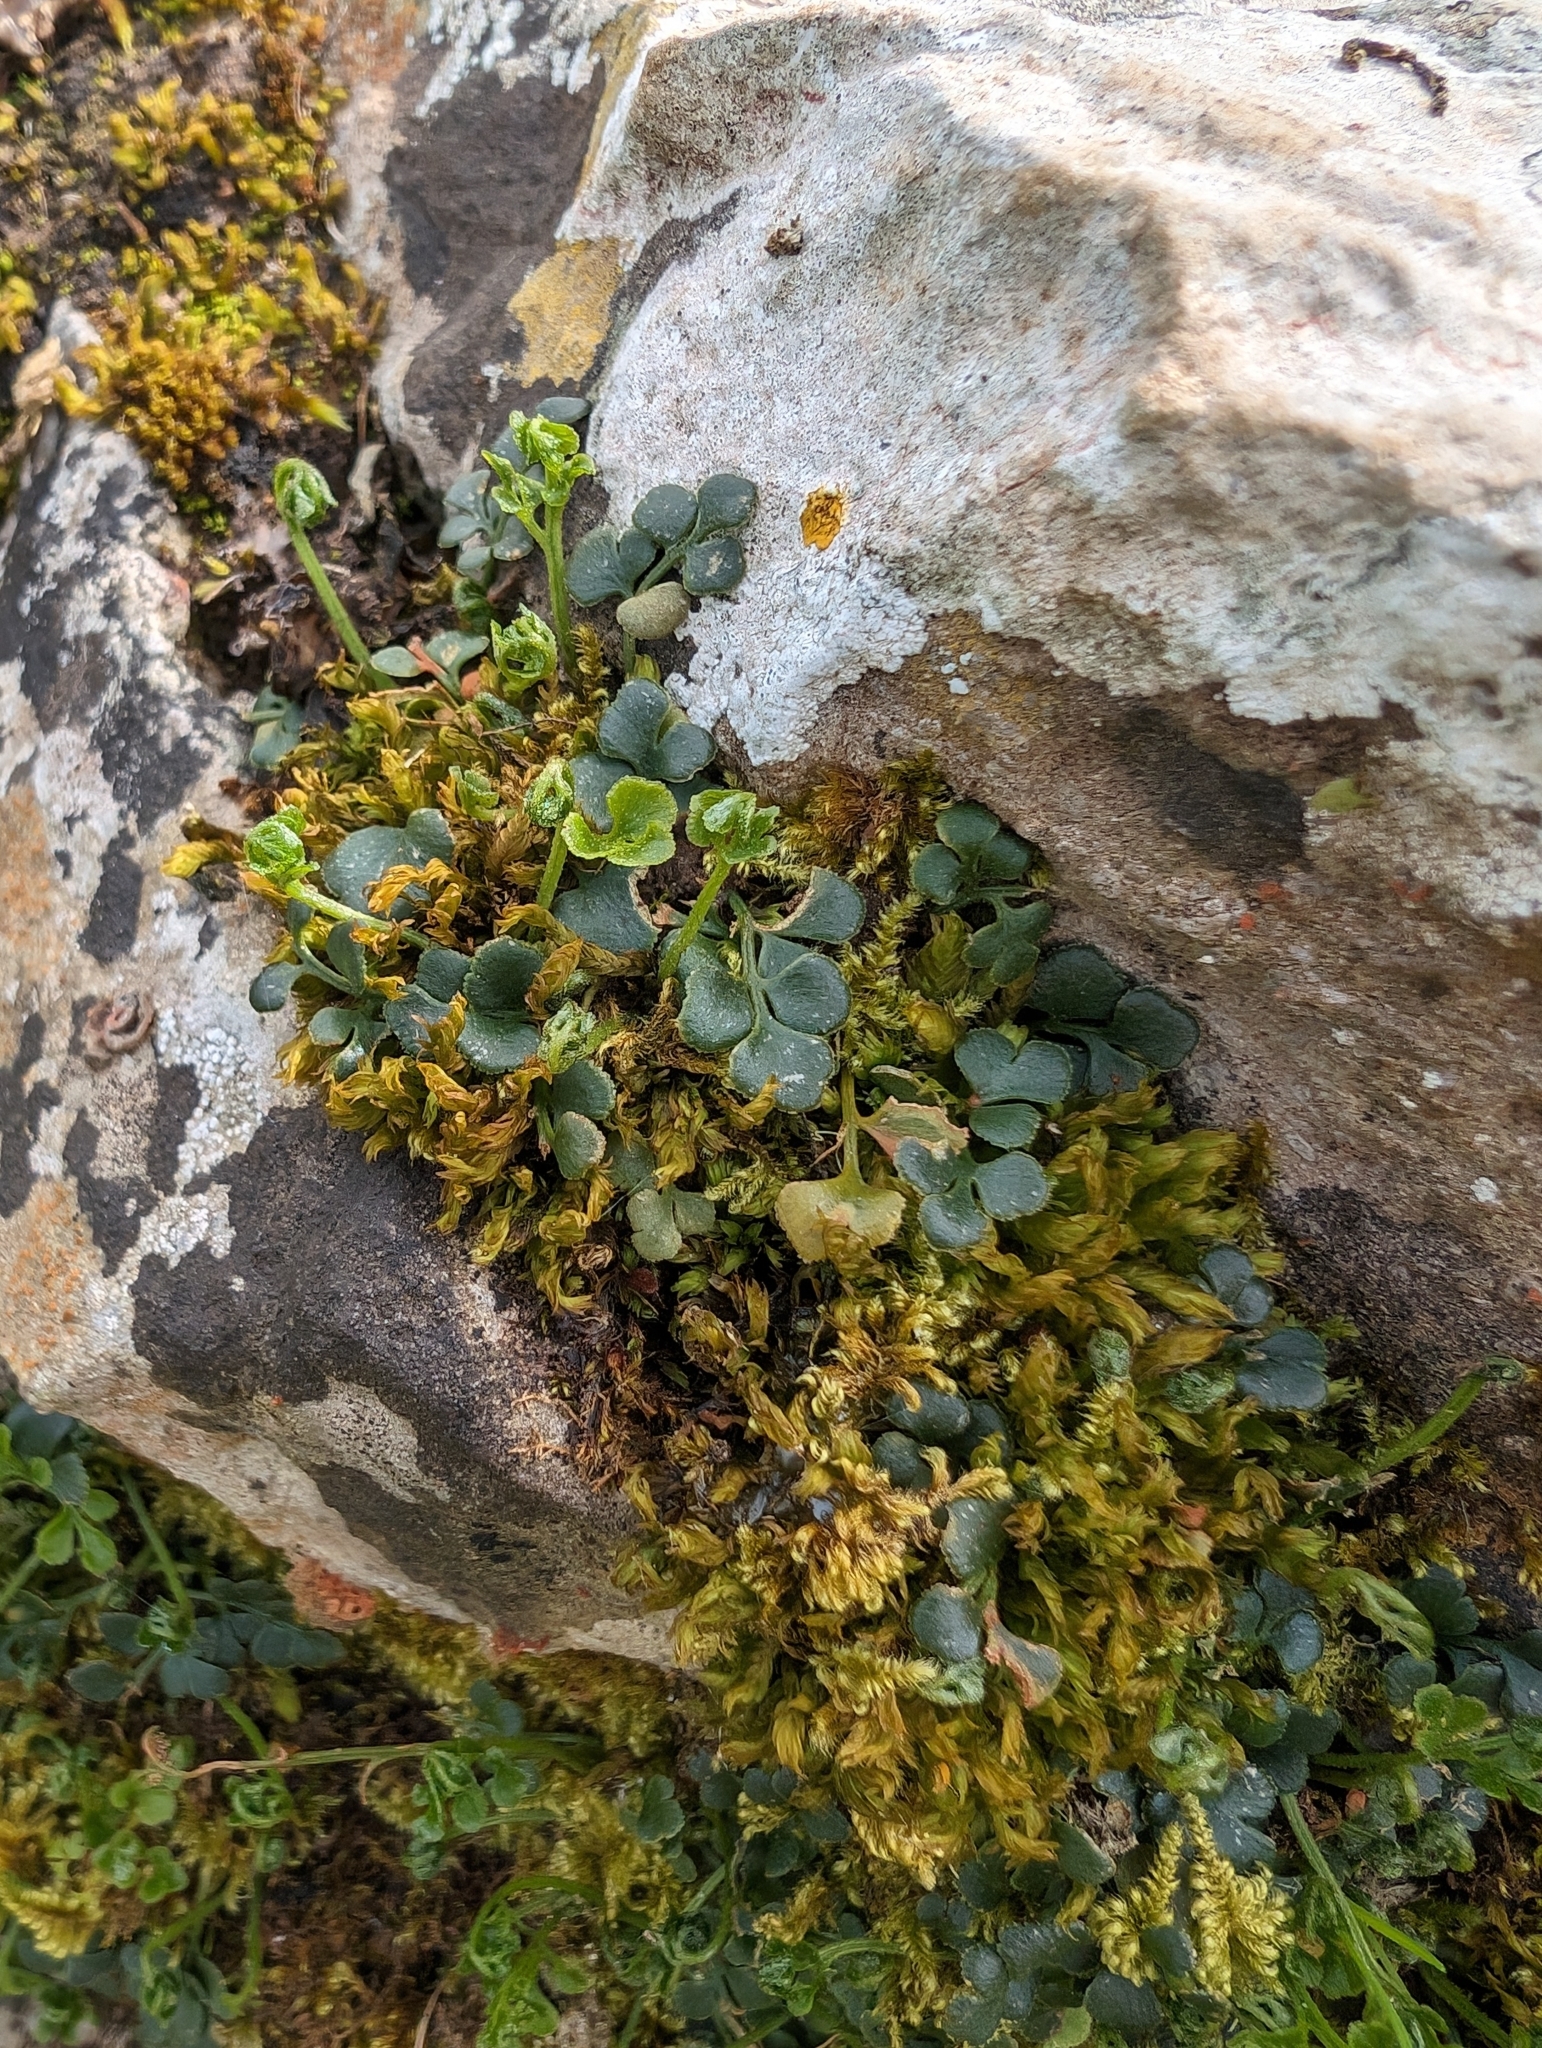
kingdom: Plantae
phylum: Tracheophyta
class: Polypodiopsida
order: Polypodiales
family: Aspleniaceae
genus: Asplenium
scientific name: Asplenium ruta-muraria
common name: Wall-rue
